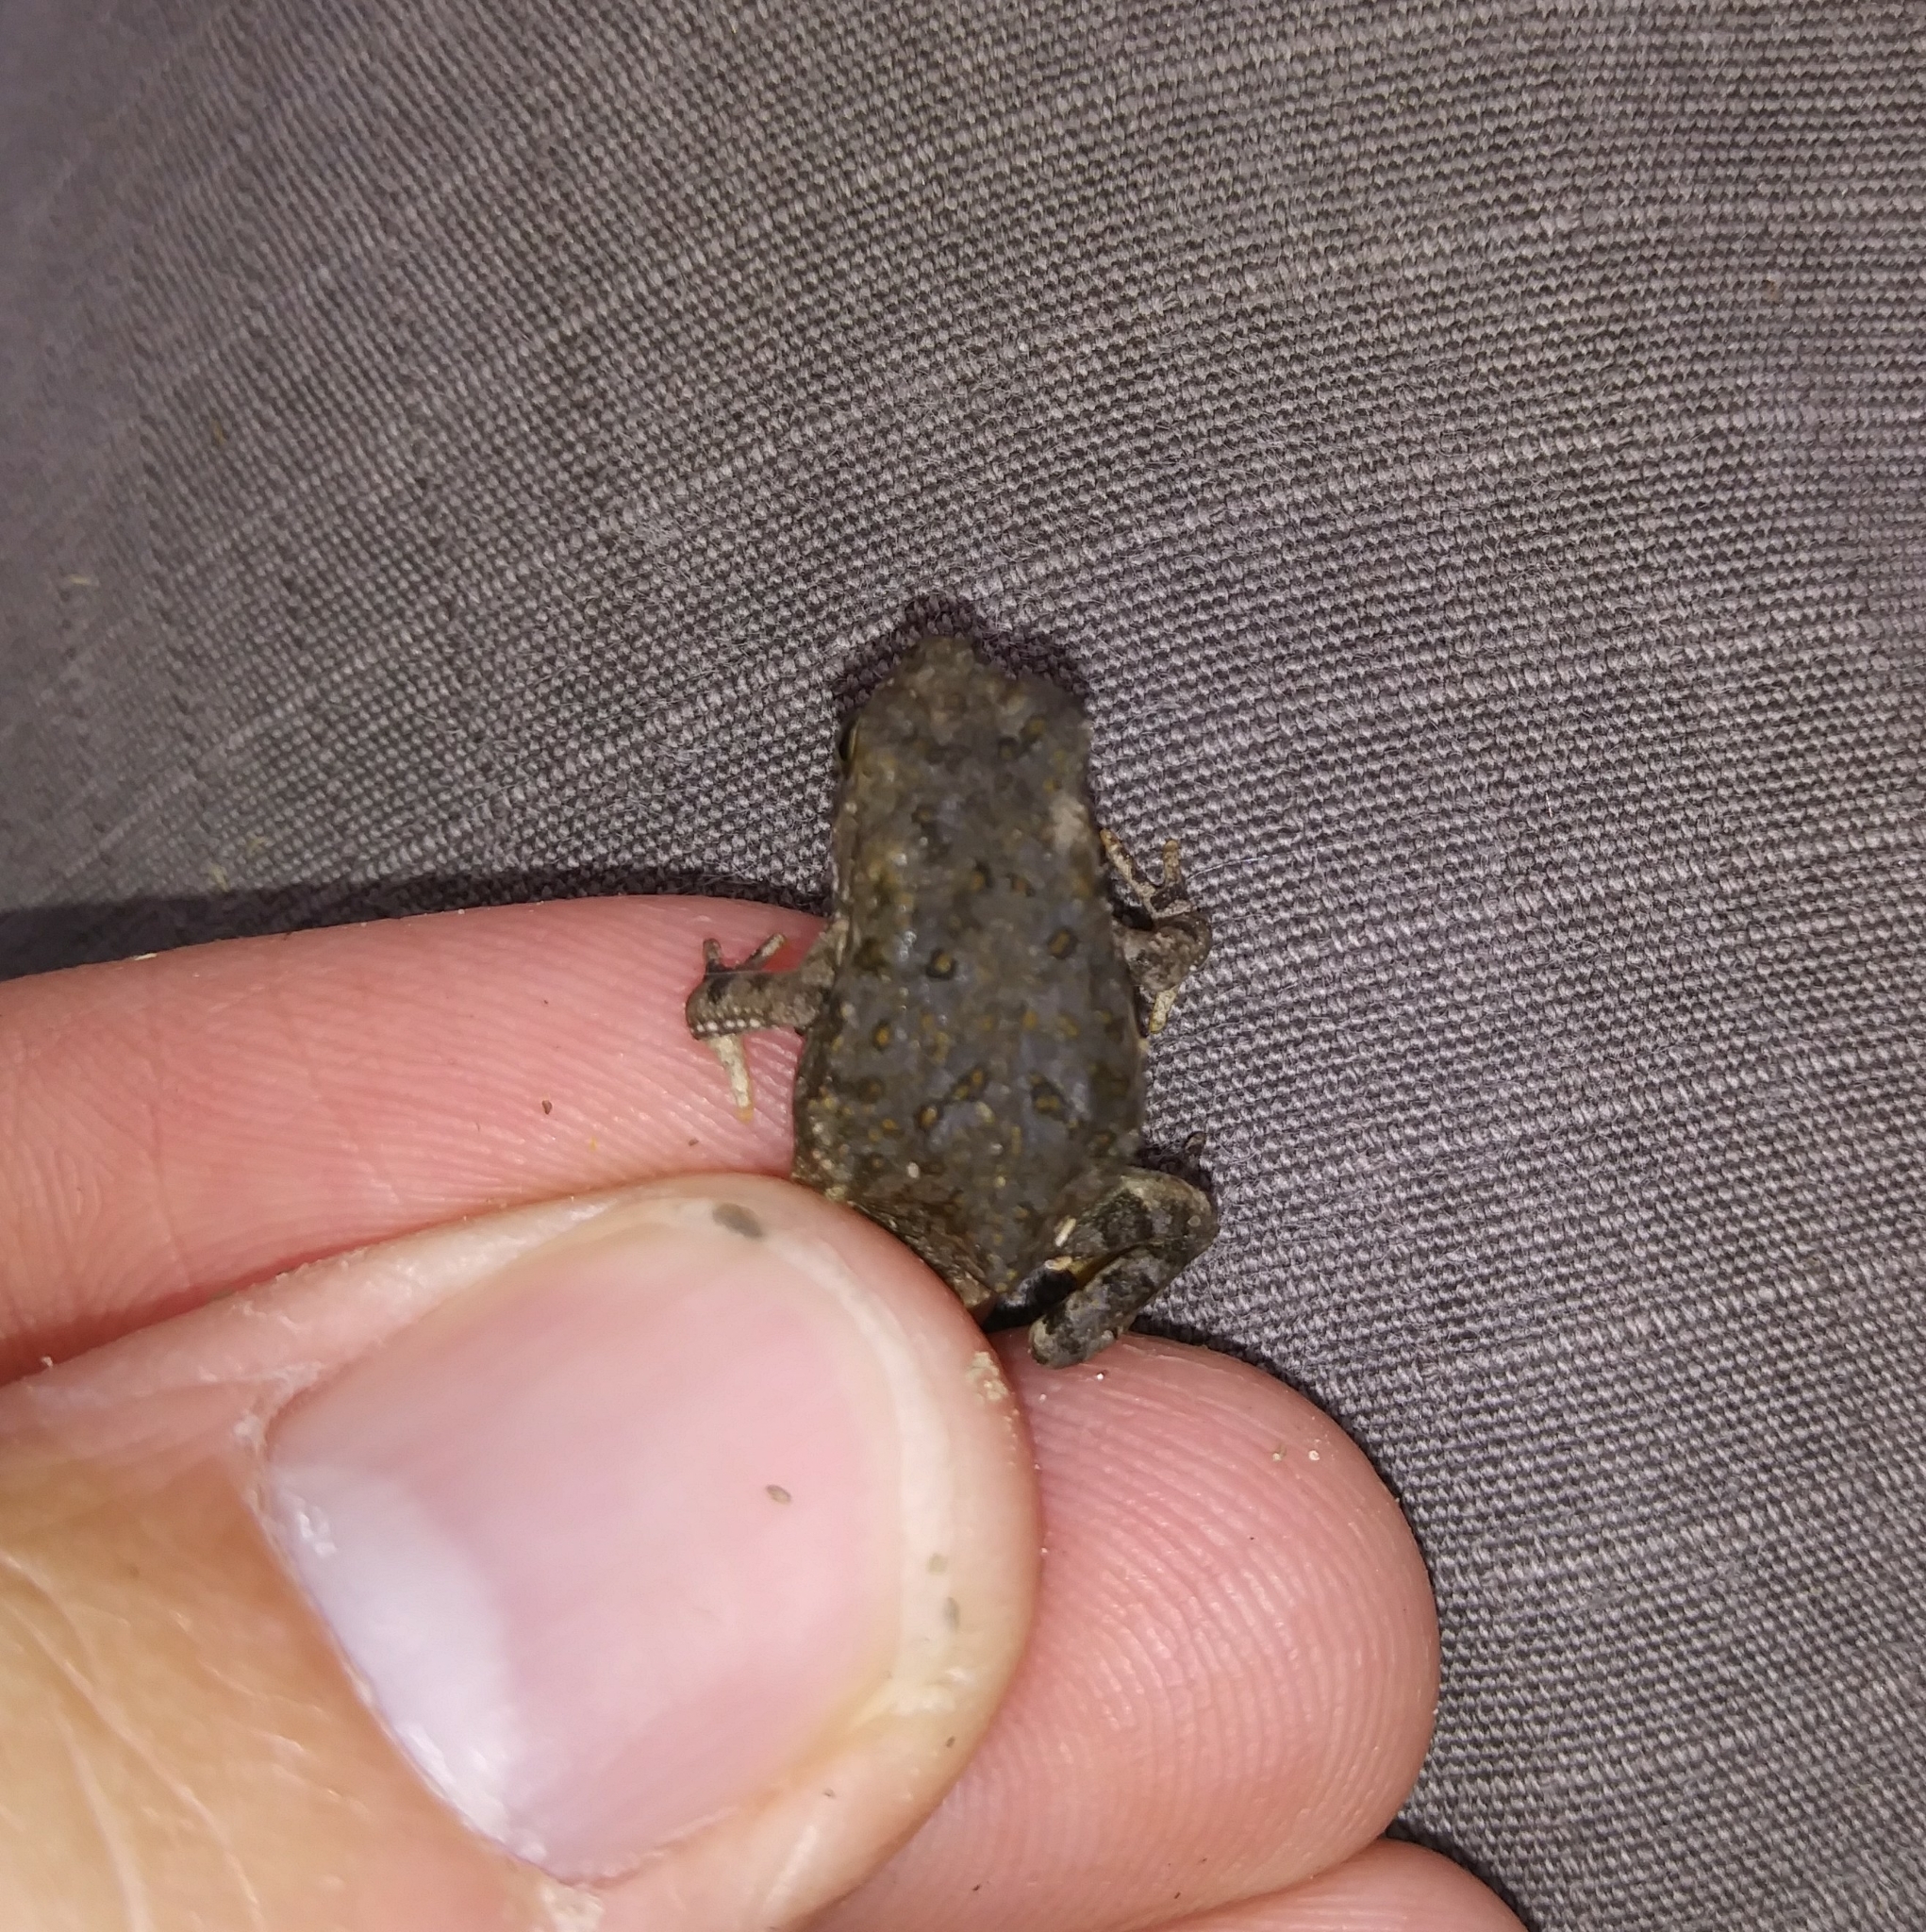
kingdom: Animalia
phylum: Chordata
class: Amphibia
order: Anura
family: Bufonidae
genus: Anaxyrus
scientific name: Anaxyrus fowleri
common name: Fowler's toad
